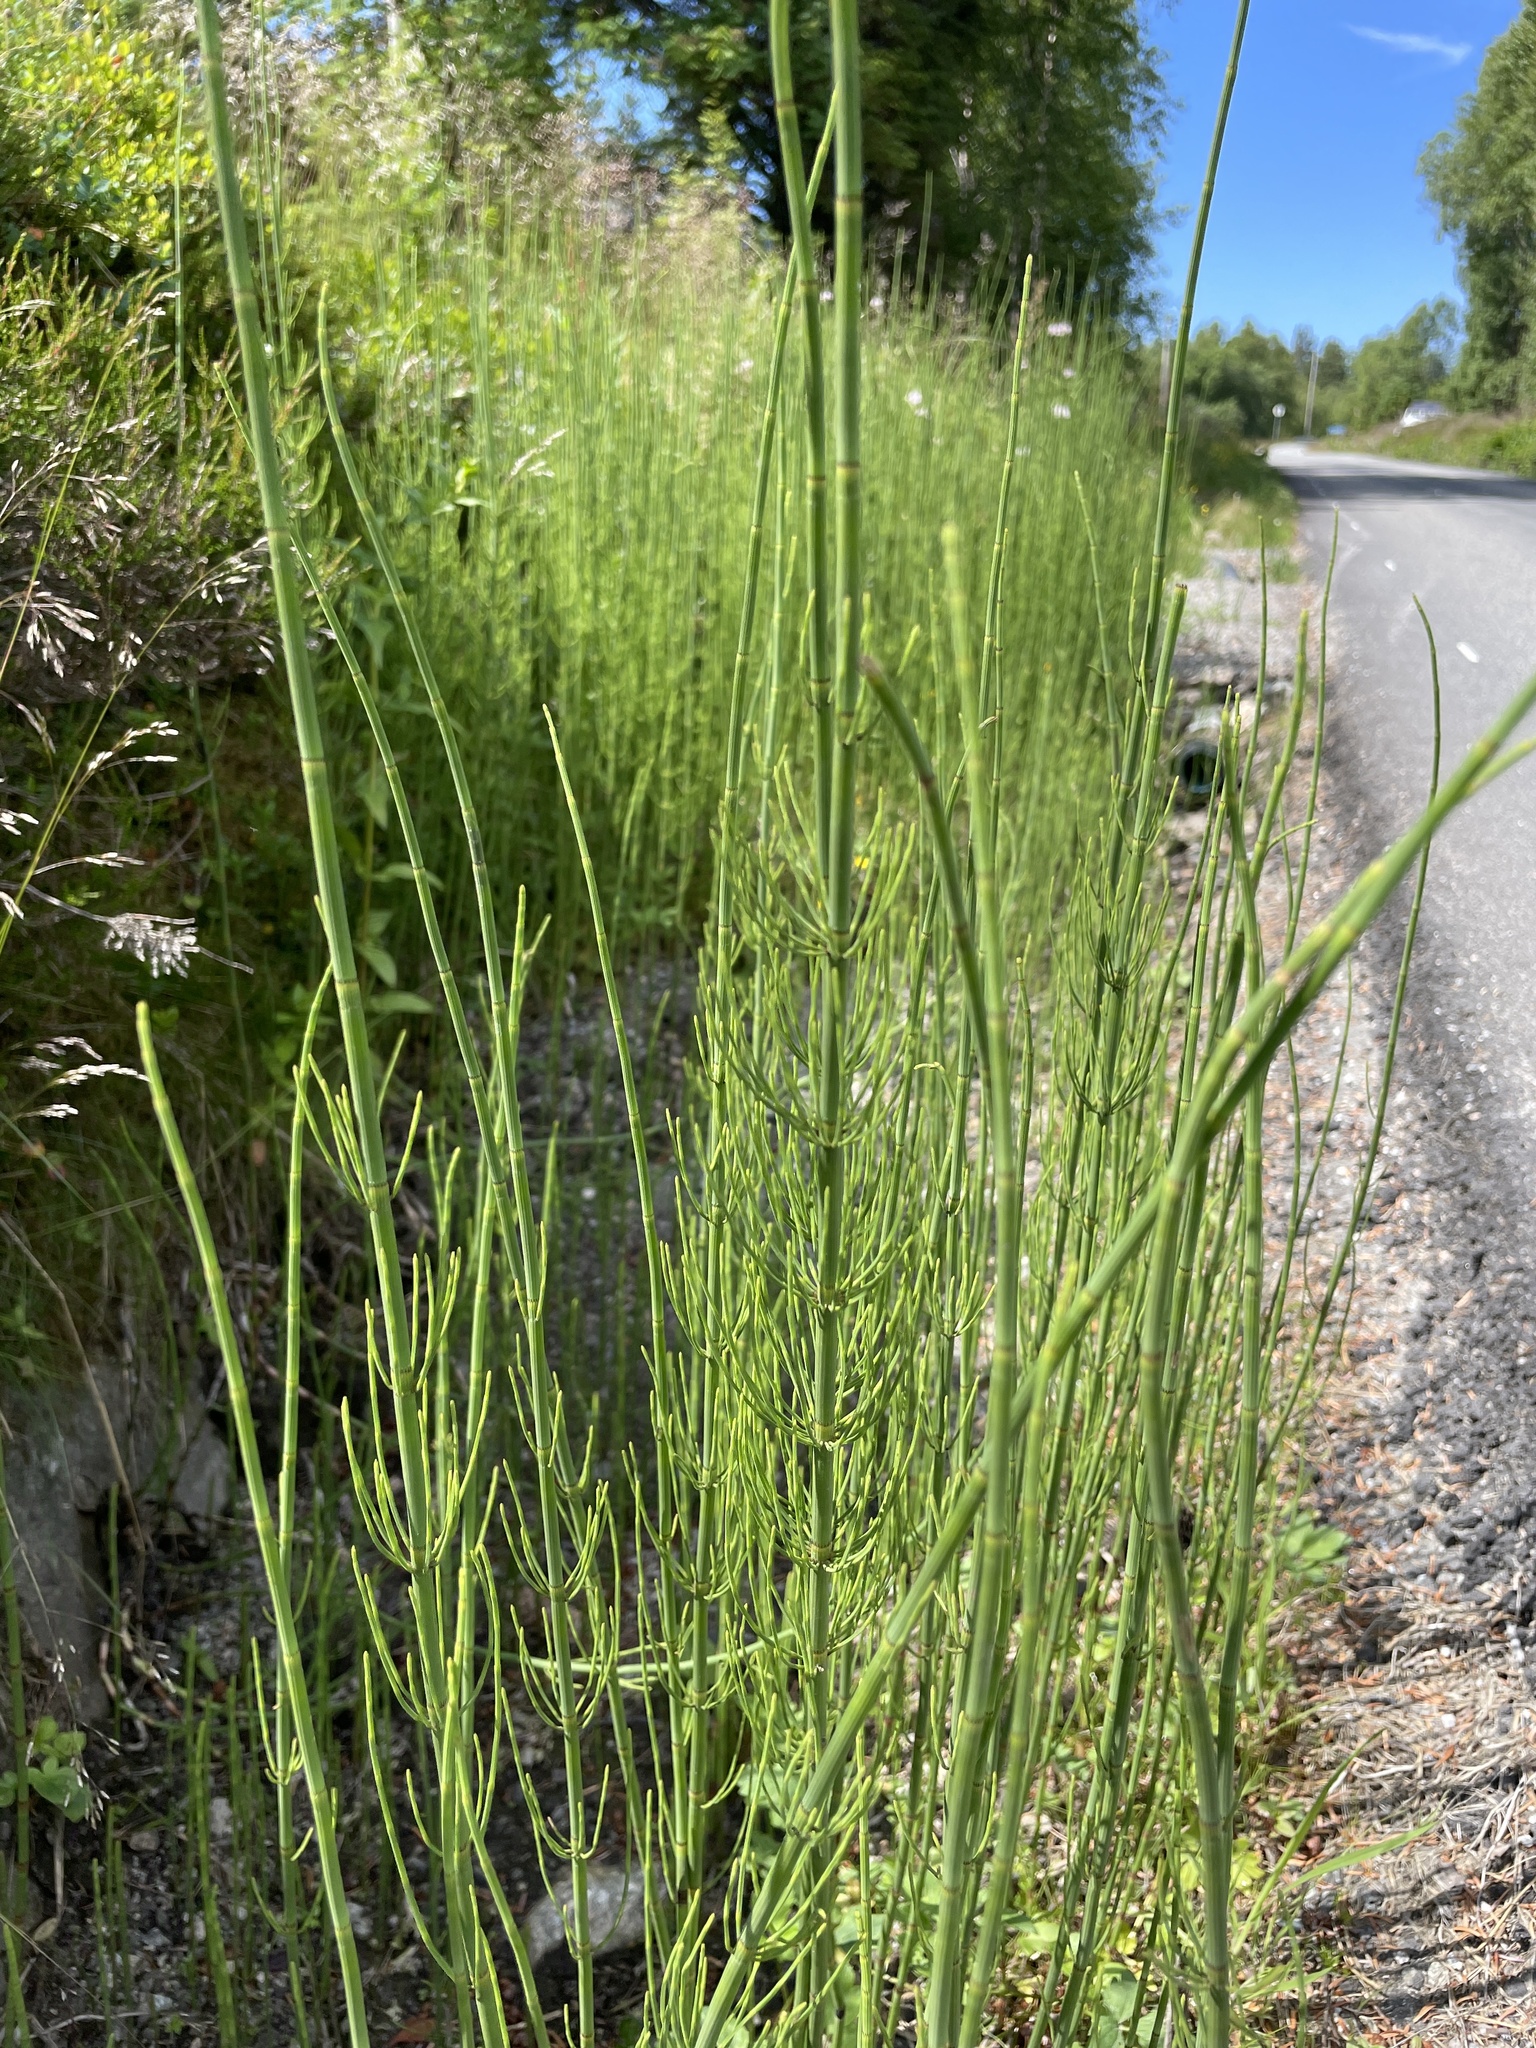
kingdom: Plantae
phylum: Tracheophyta
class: Polypodiopsida
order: Equisetales
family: Equisetaceae
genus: Equisetum
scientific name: Equisetum fluviatile
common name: Water horsetail
